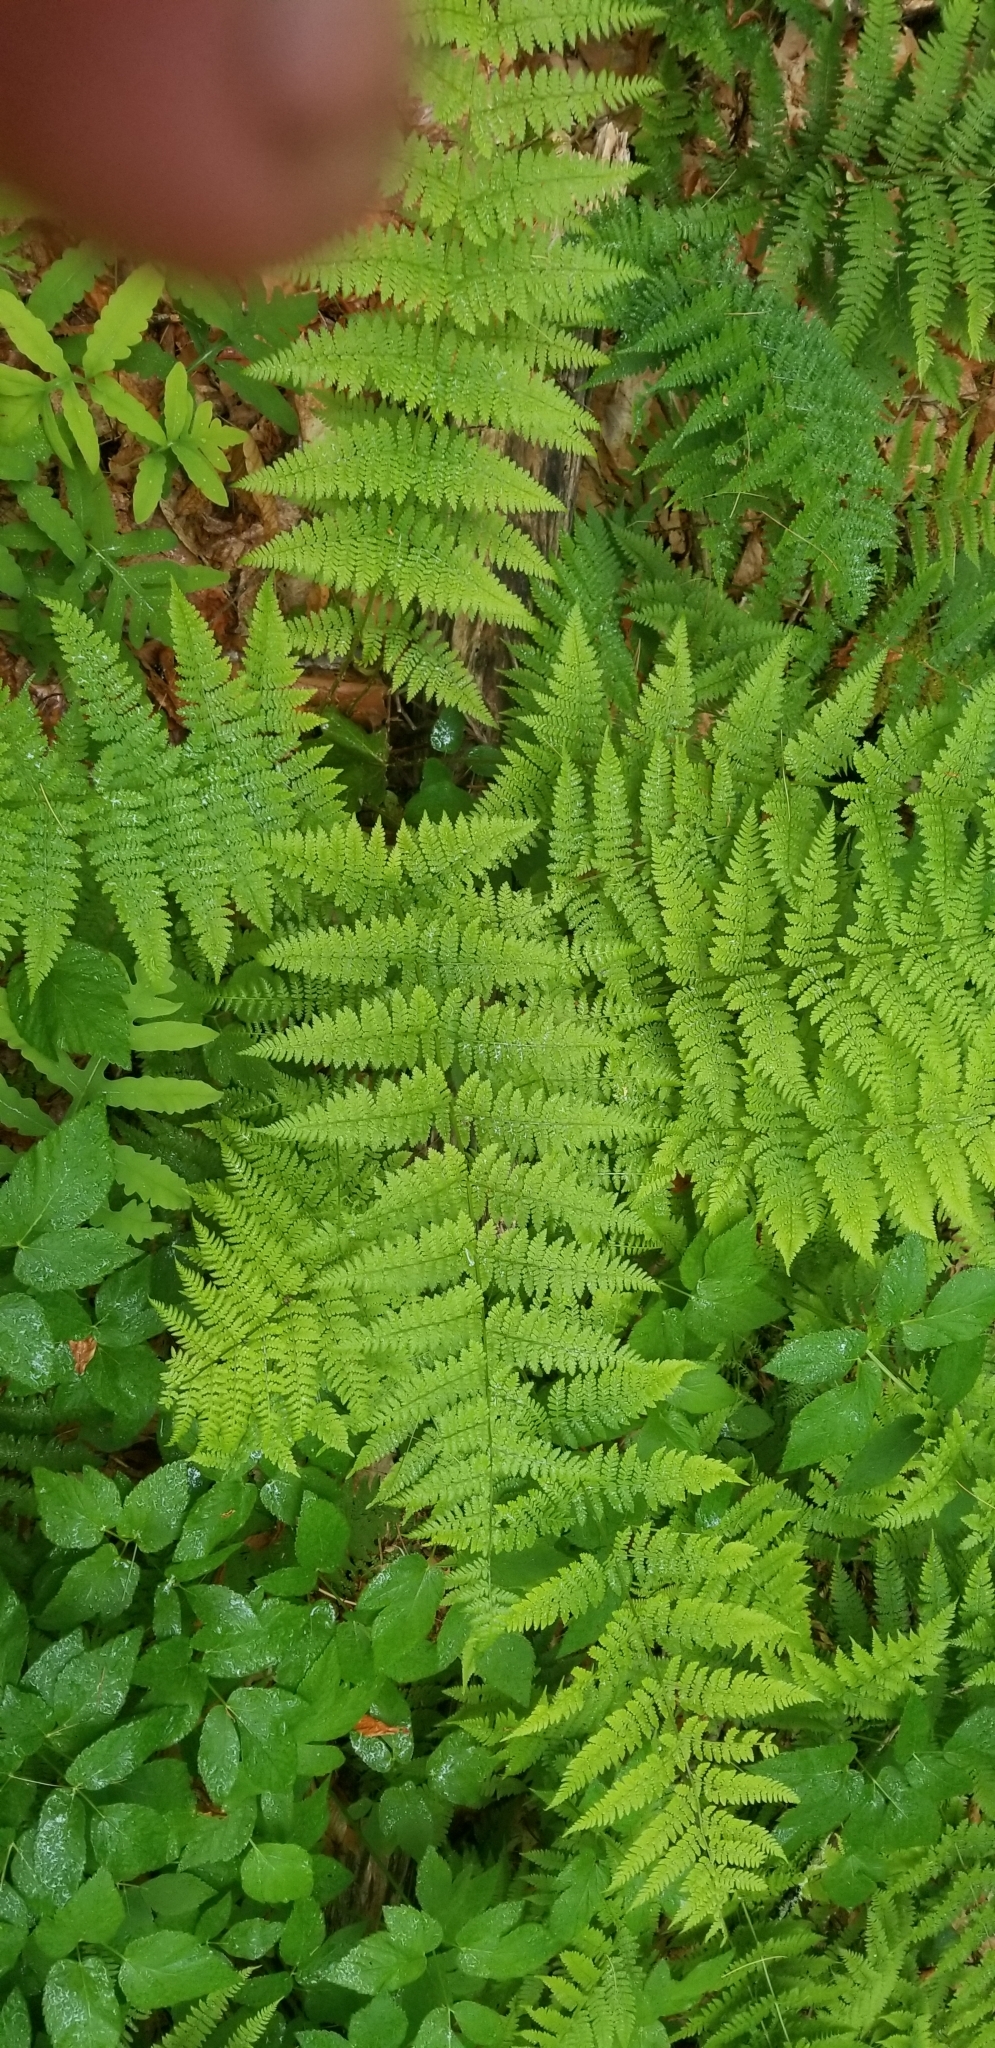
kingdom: Plantae
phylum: Tracheophyta
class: Polypodiopsida
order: Polypodiales
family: Dryopteridaceae
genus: Dryopteris
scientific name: Dryopteris intermedia
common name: Evergreen wood fern
